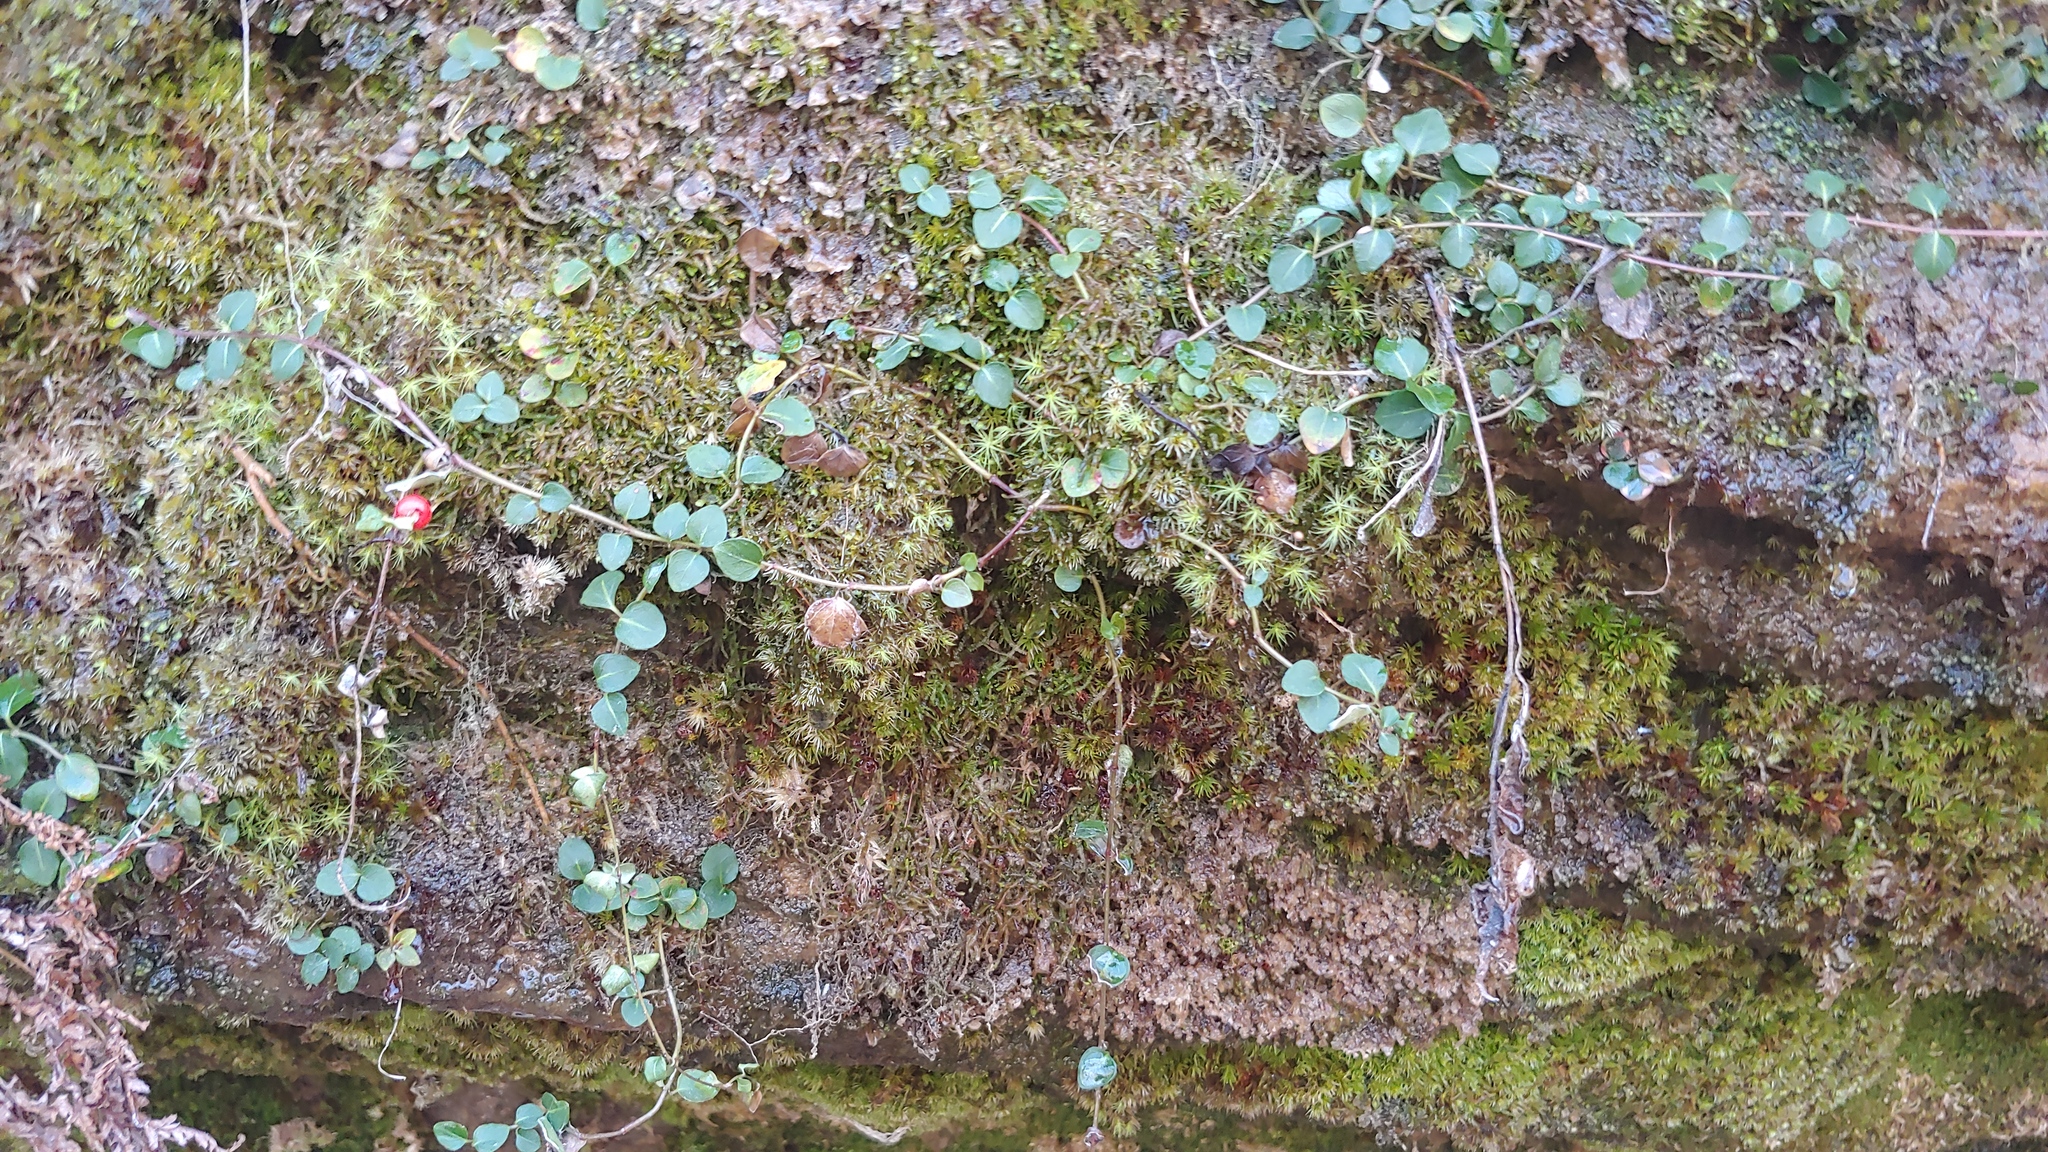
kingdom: Plantae
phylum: Tracheophyta
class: Magnoliopsida
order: Gentianales
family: Rubiaceae
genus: Mitchella
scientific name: Mitchella repens
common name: Partridge-berry
